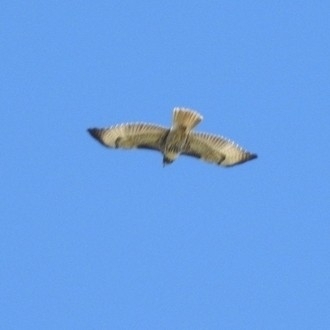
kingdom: Animalia
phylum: Chordata
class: Aves
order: Accipitriformes
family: Accipitridae
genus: Buteo
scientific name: Buteo jamaicensis
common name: Red-tailed hawk
